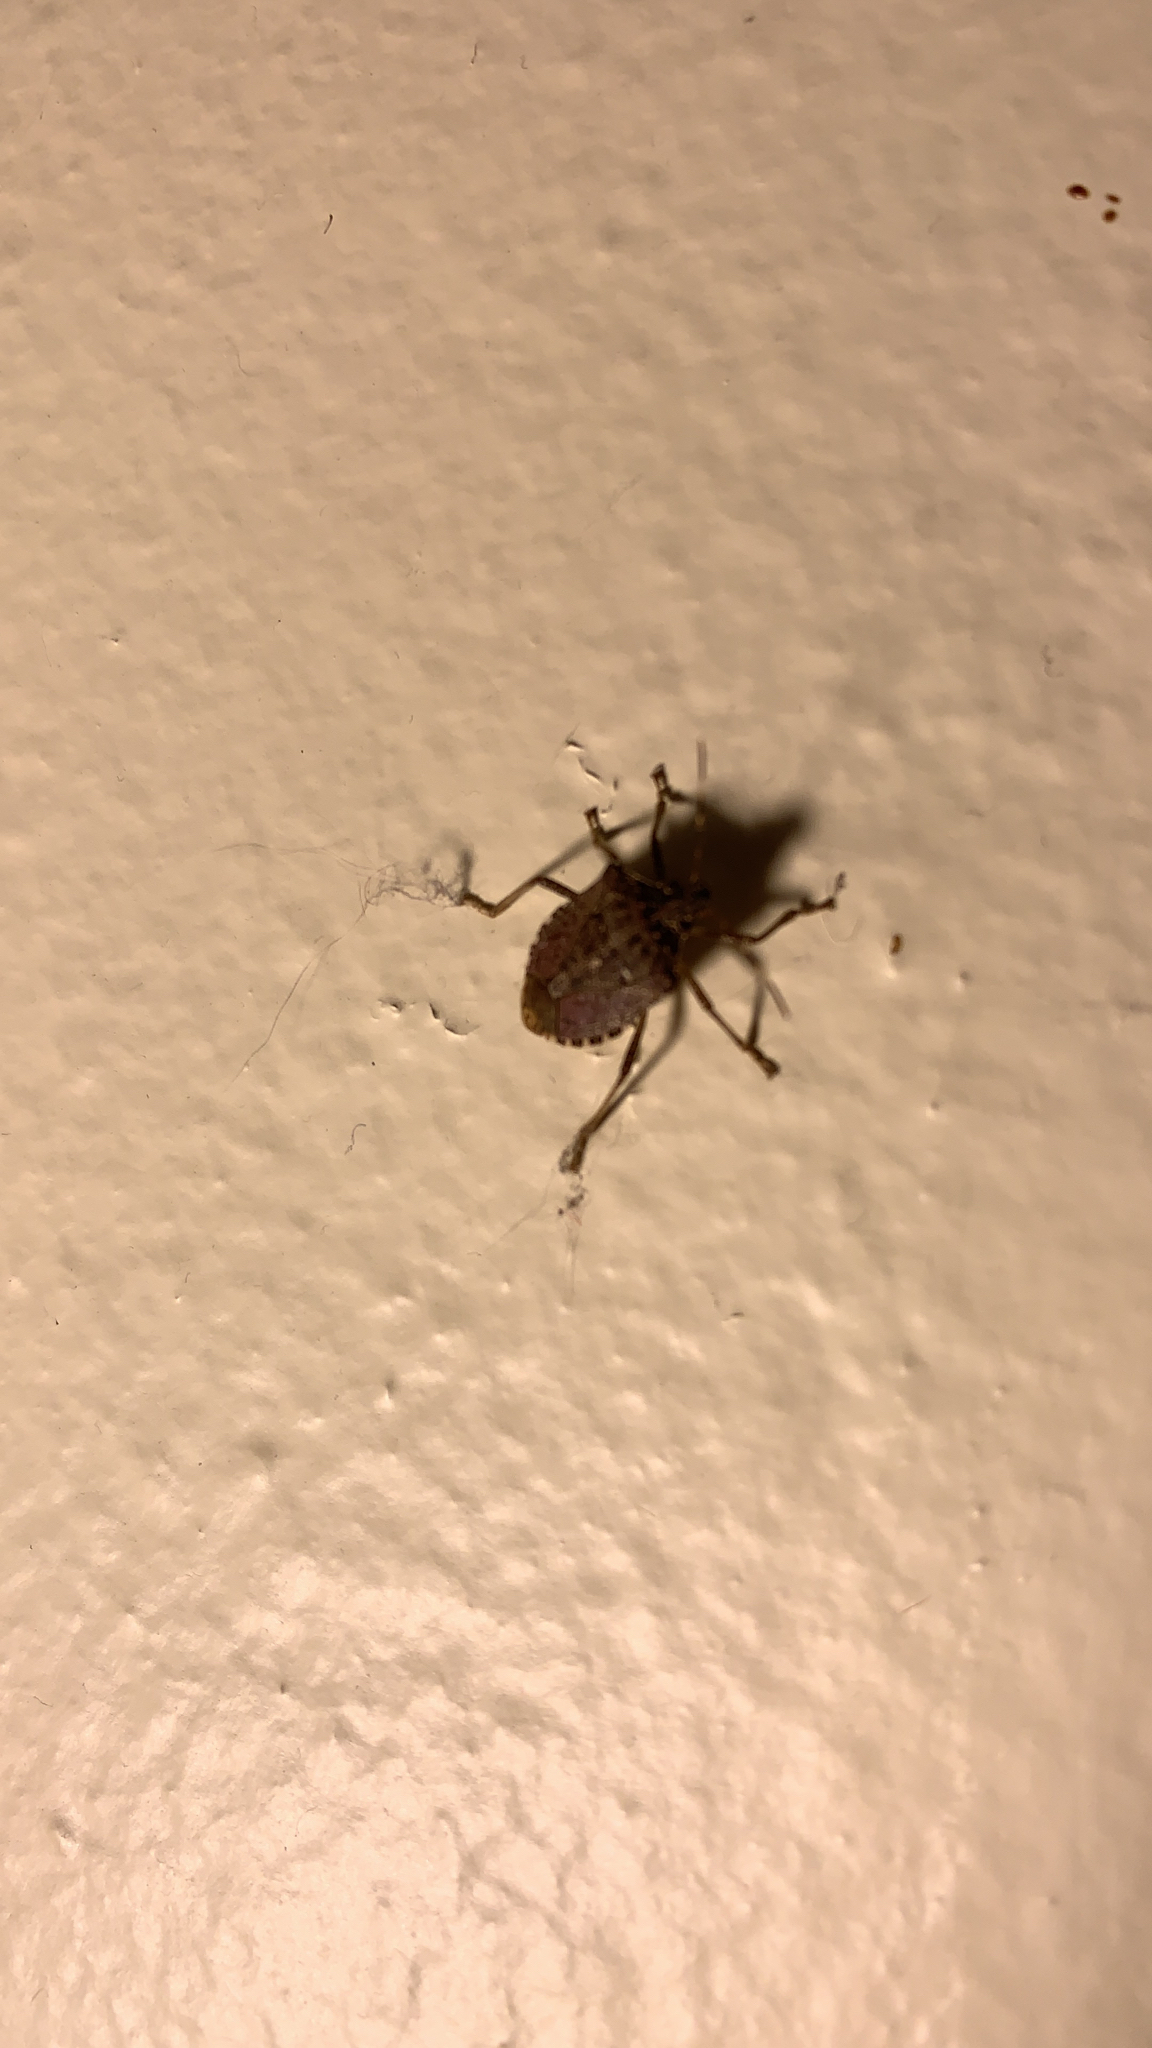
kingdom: Animalia
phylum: Arthropoda
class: Insecta
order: Hemiptera
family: Pentatomidae
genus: Halyomorpha
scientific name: Halyomorpha halys
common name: Brown marmorated stink bug
